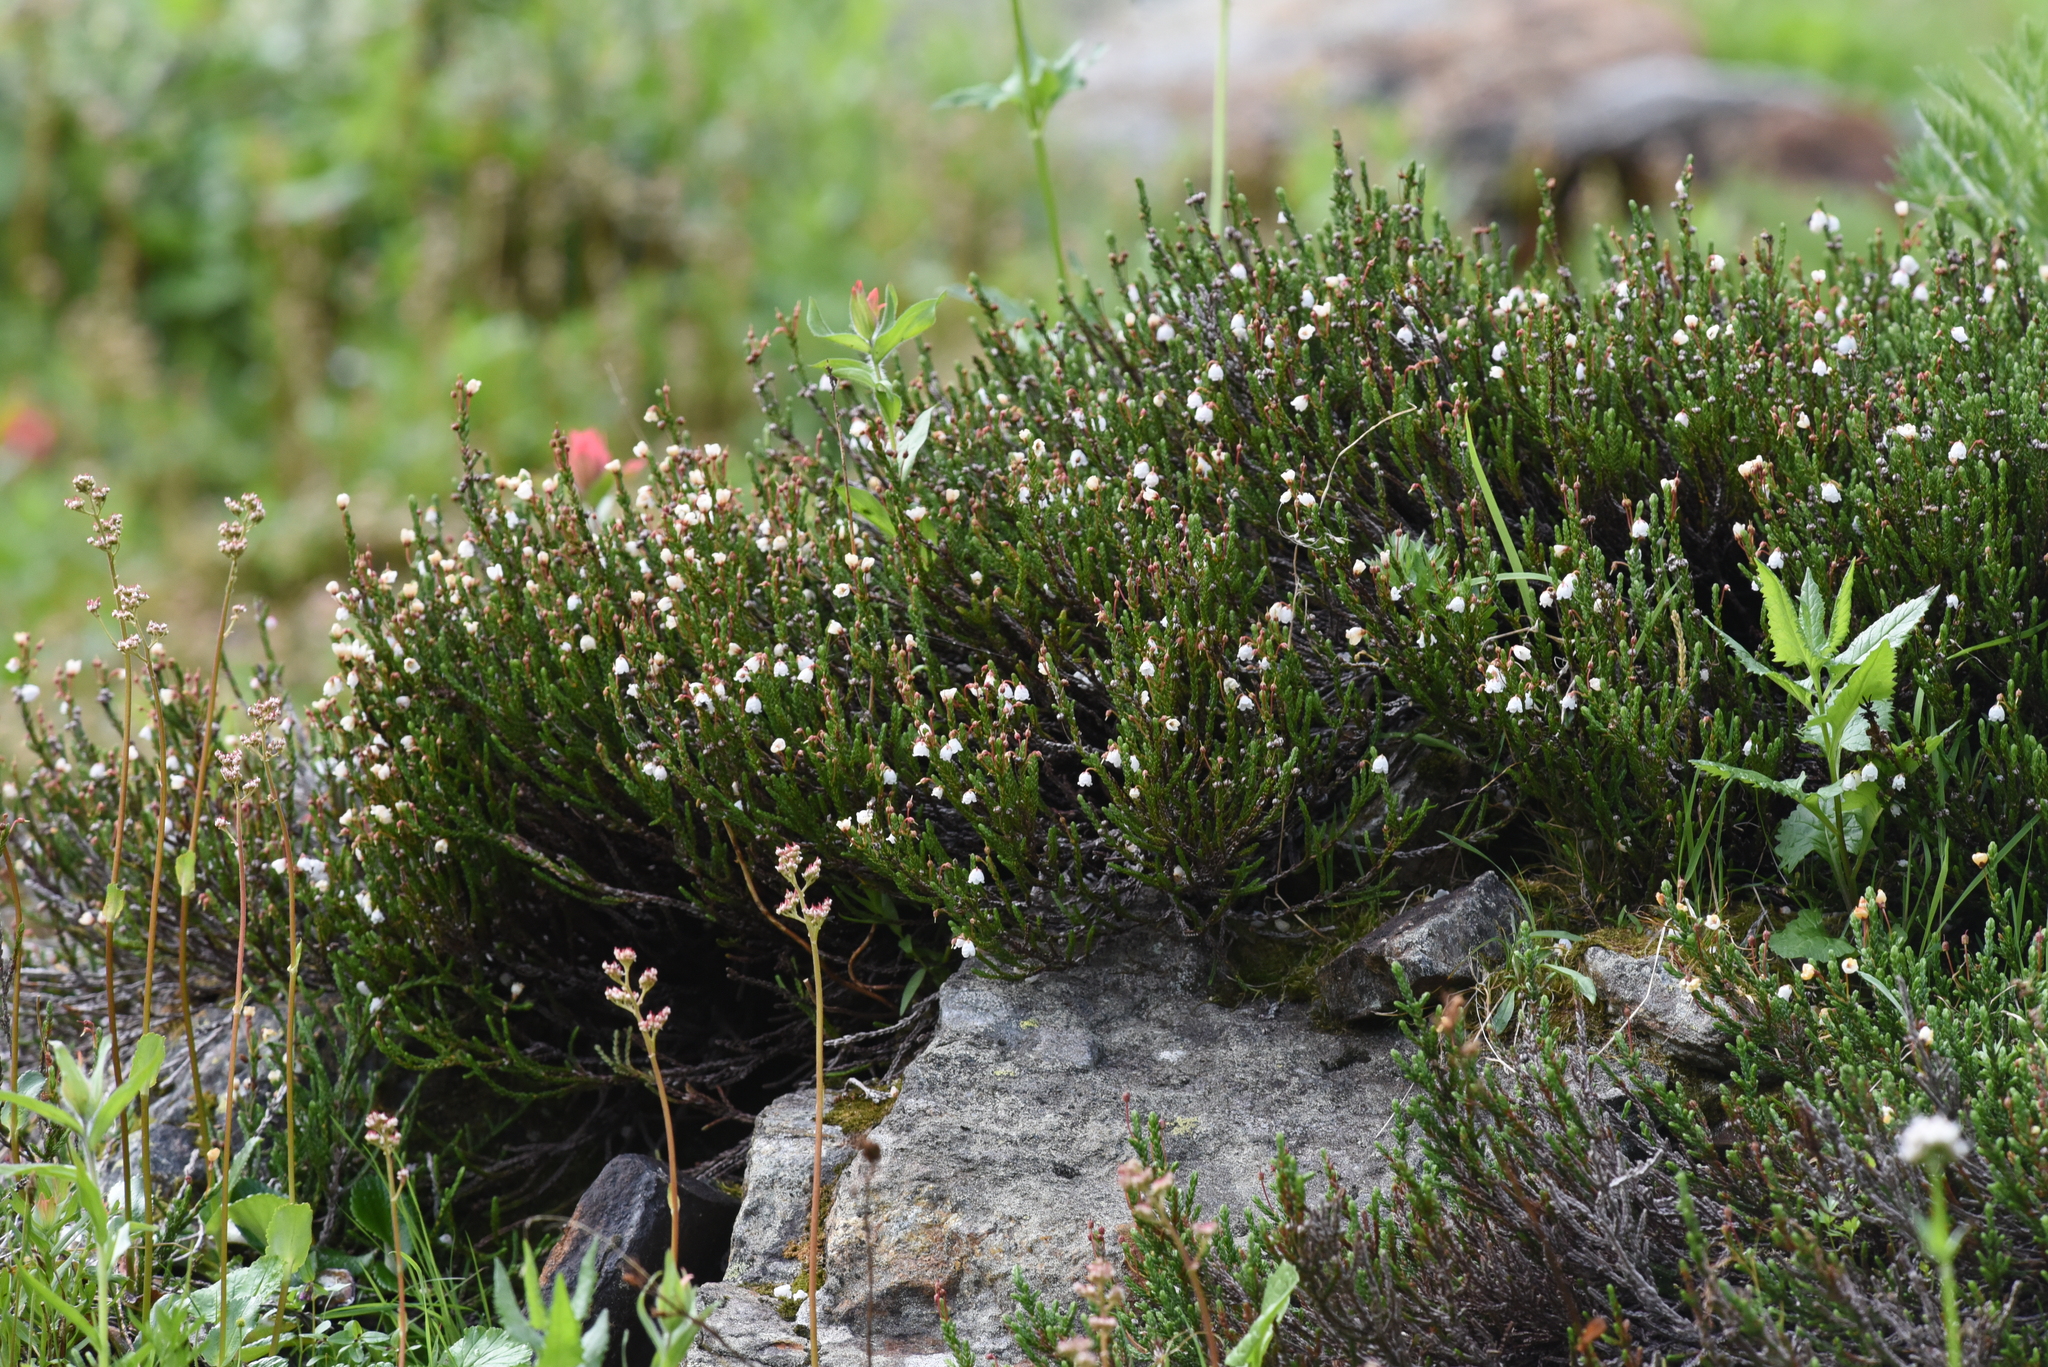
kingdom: Plantae
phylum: Tracheophyta
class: Magnoliopsida
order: Ericales
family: Ericaceae
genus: Cassiope
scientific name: Cassiope mertensiana
